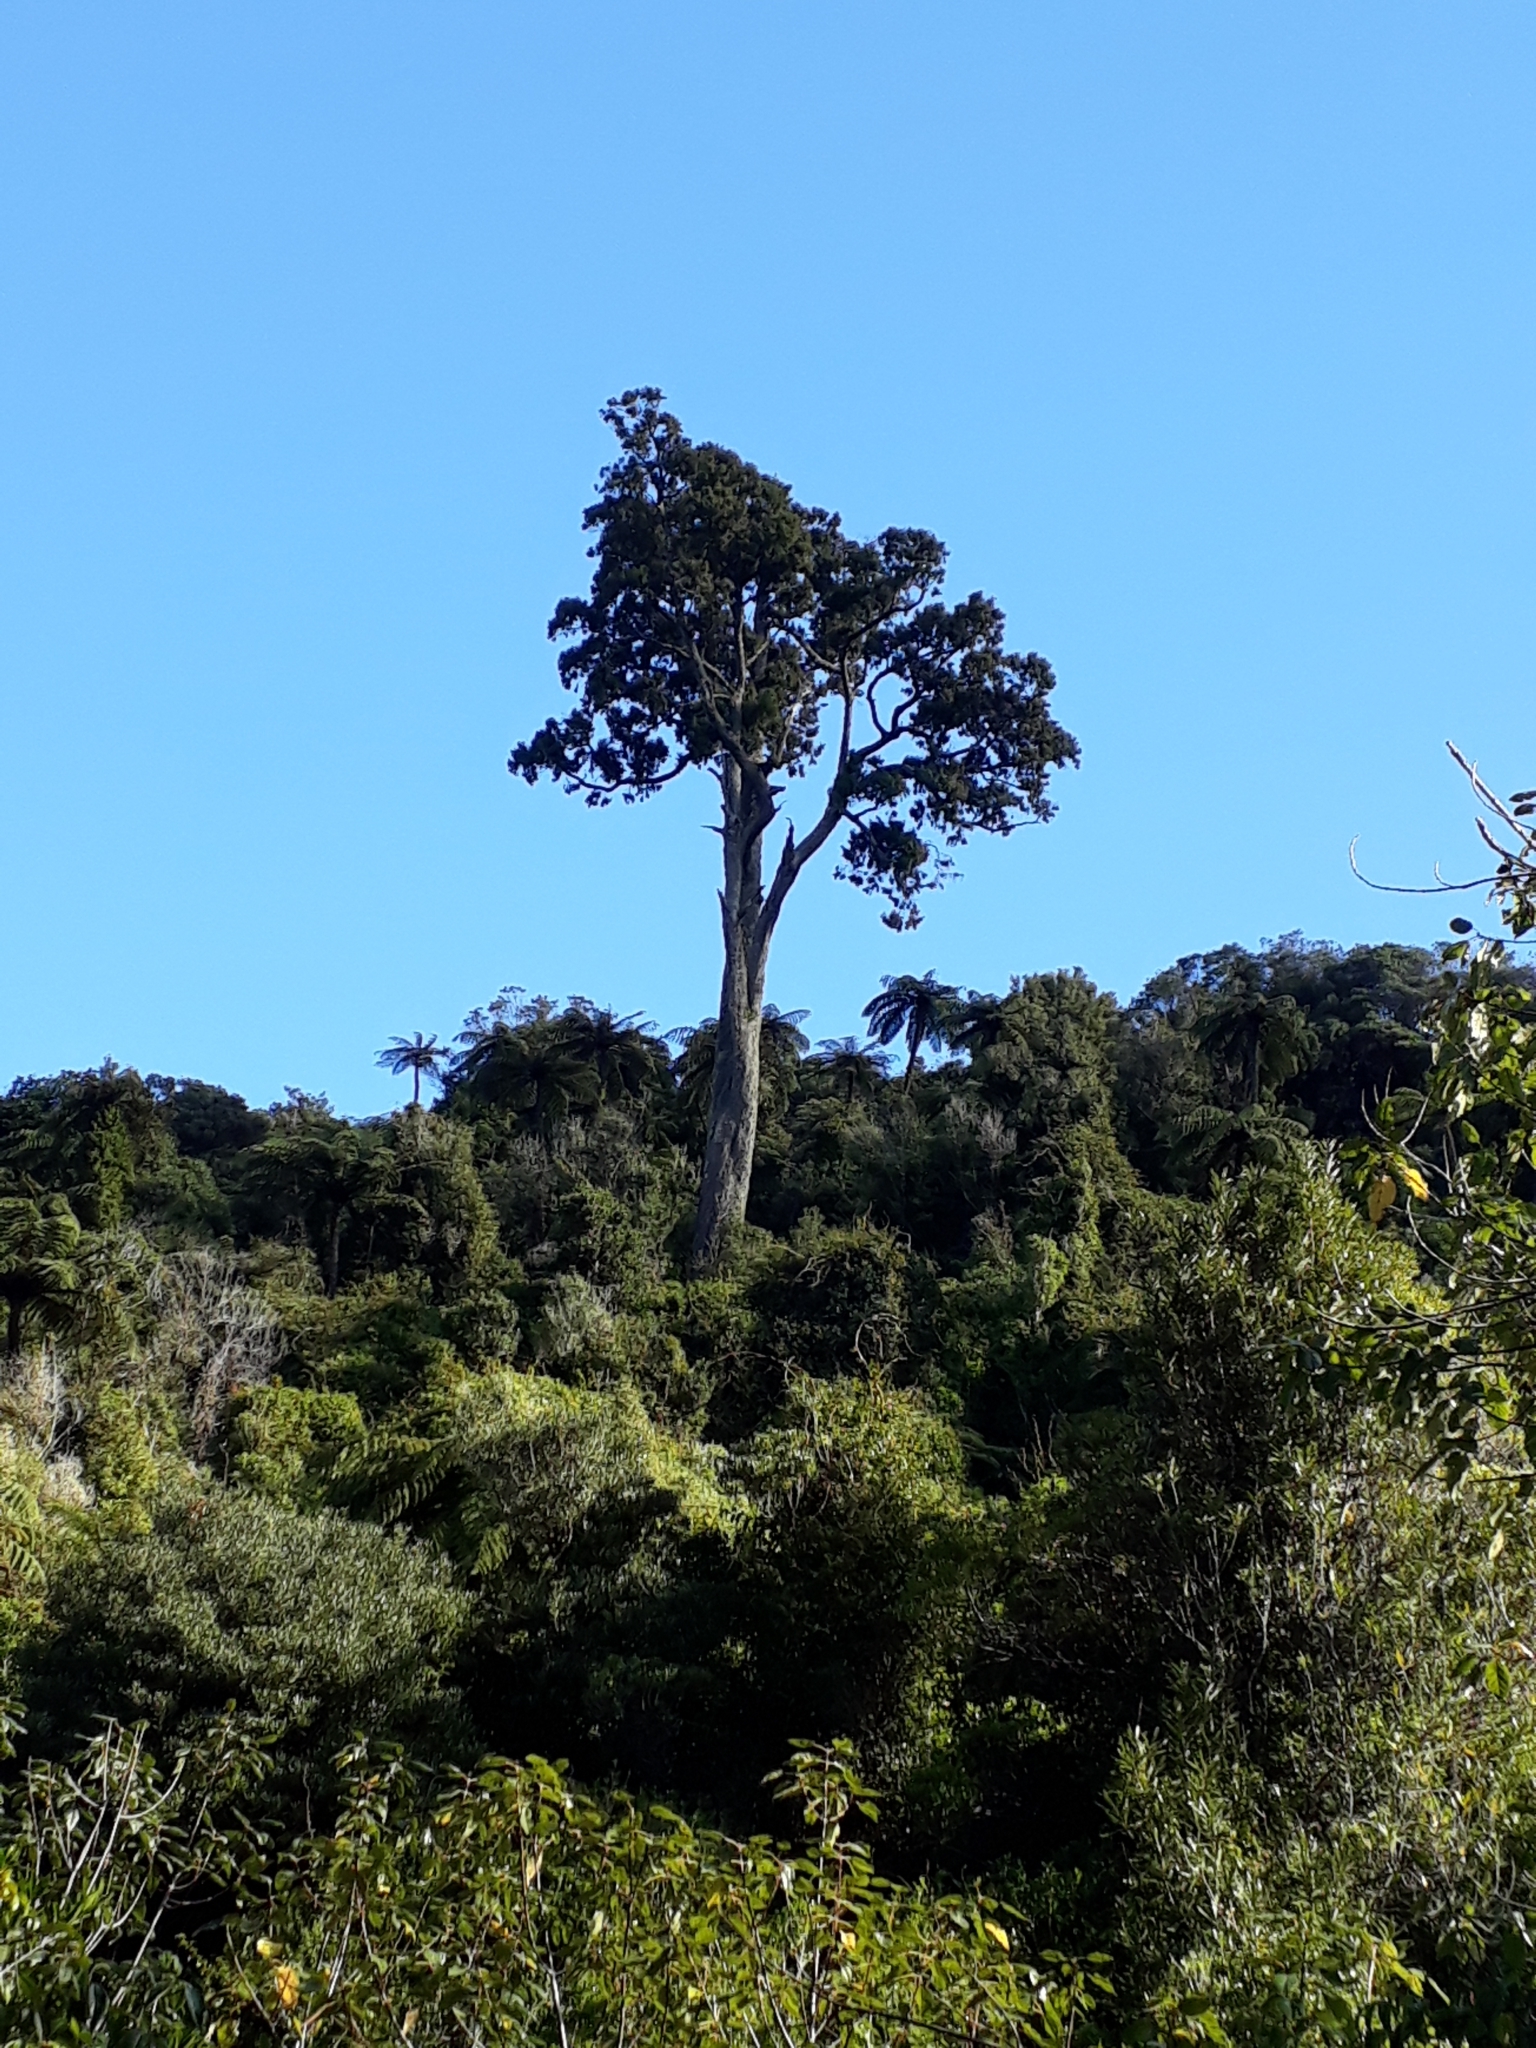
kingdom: Plantae
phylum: Tracheophyta
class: Pinopsida
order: Pinales
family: Podocarpaceae
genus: Dacrydium
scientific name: Dacrydium cupressinum
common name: Red pine
